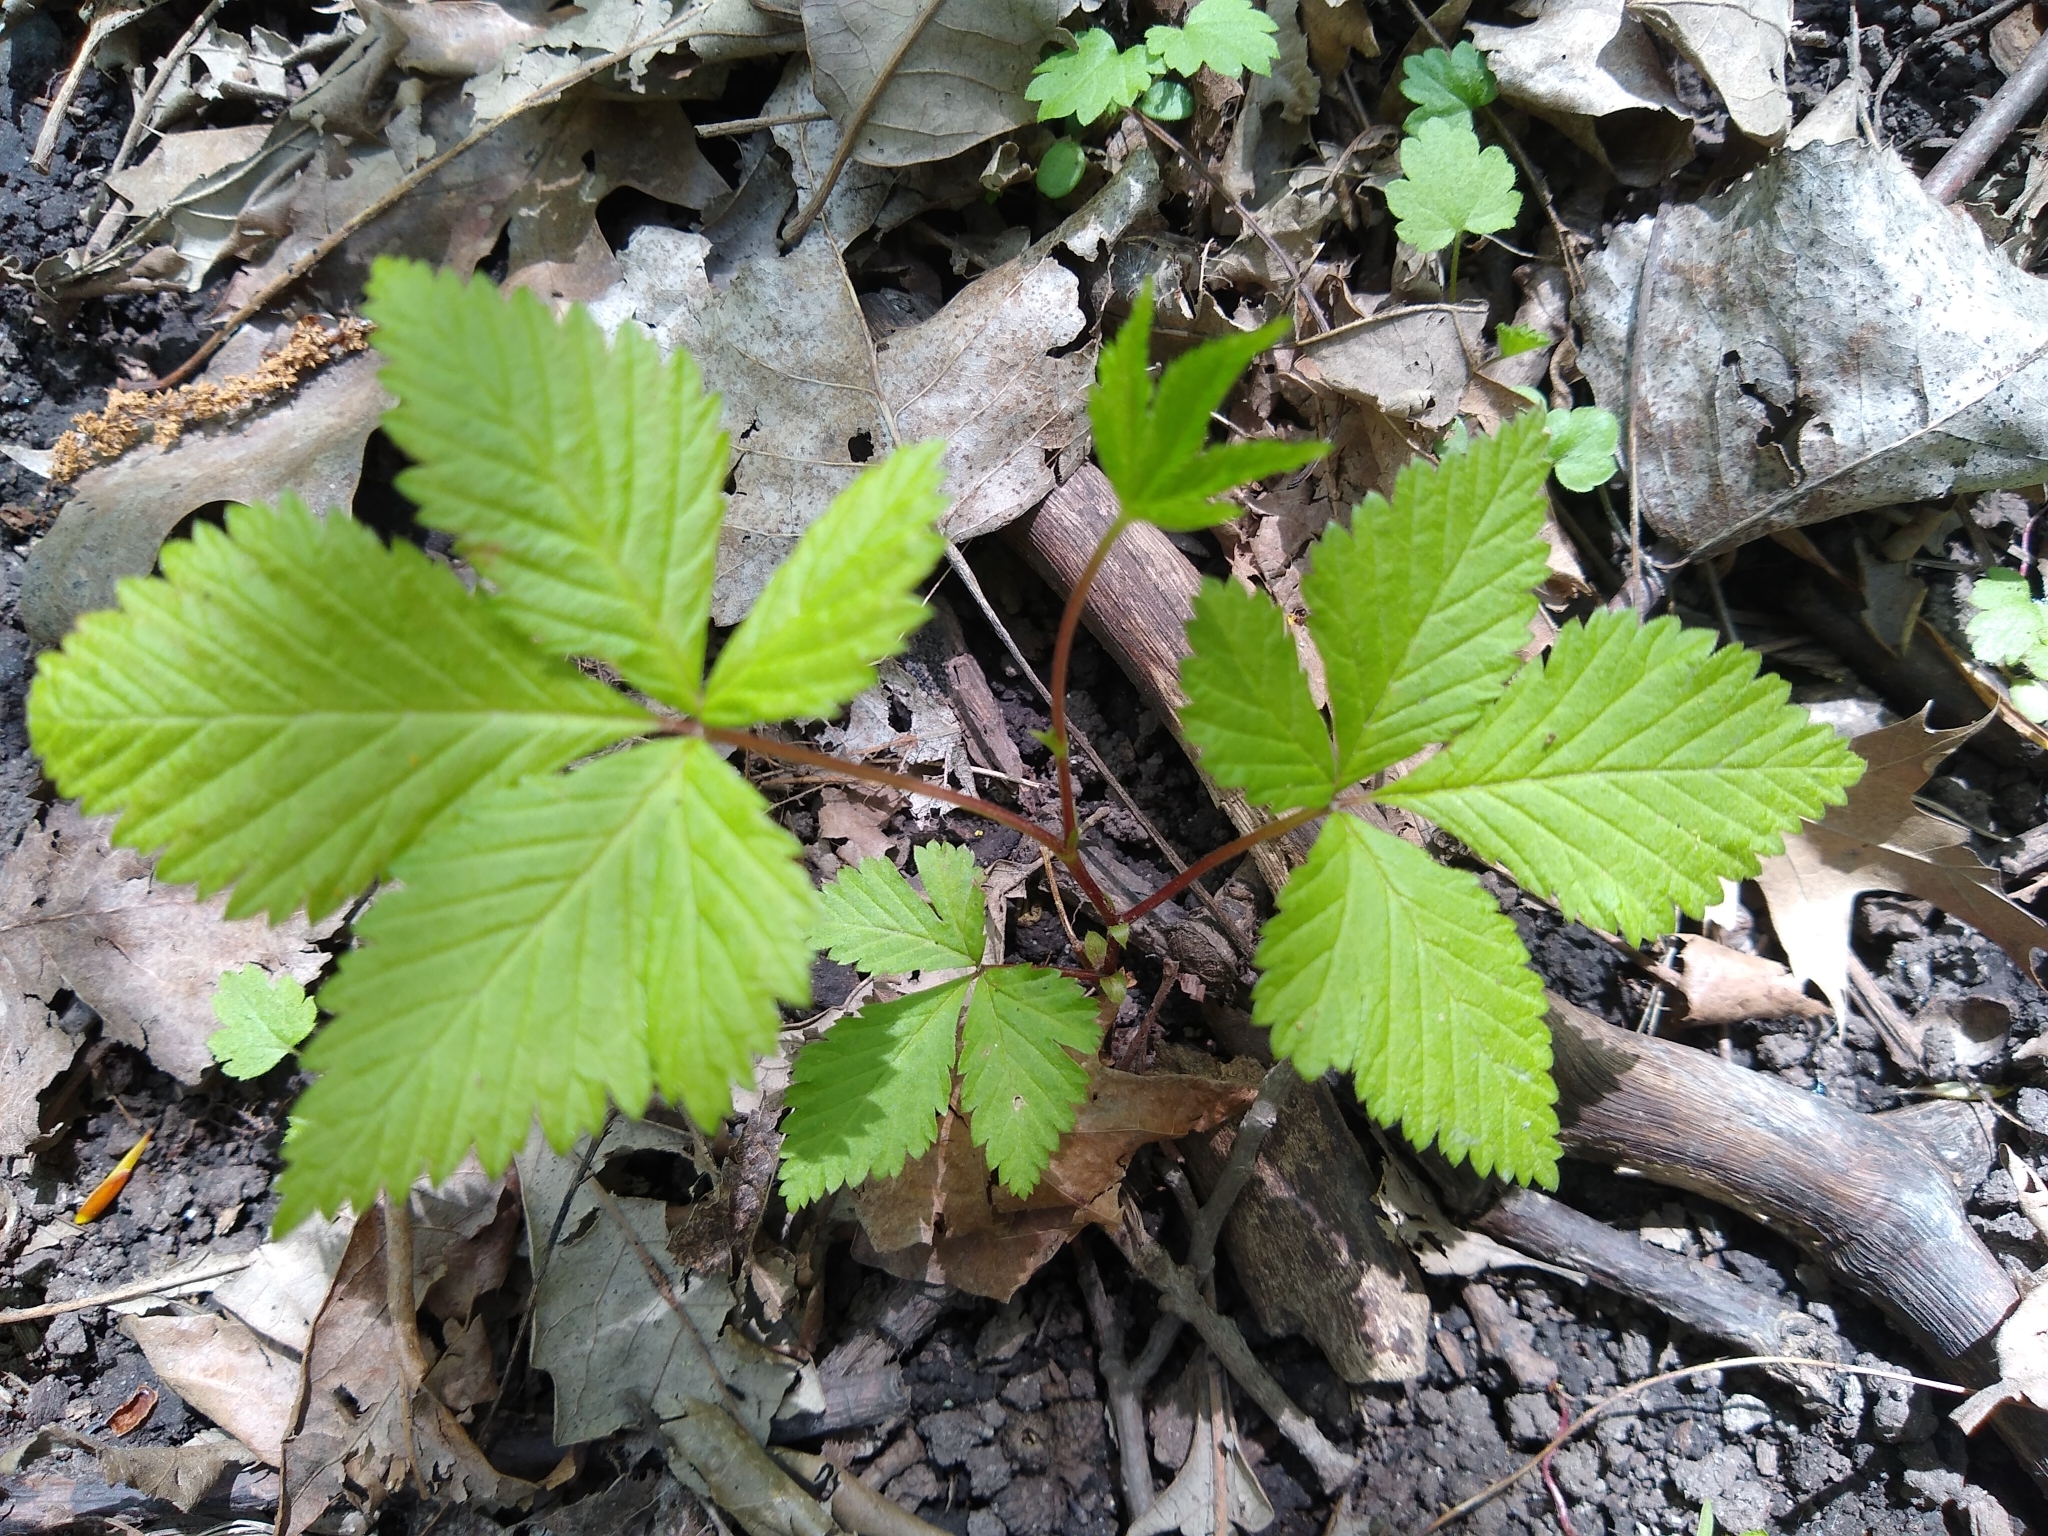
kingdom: Plantae
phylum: Tracheophyta
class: Magnoliopsida
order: Rosales
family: Rosaceae
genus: Rubus
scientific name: Rubus pubescens
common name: Dwarf raspberry
